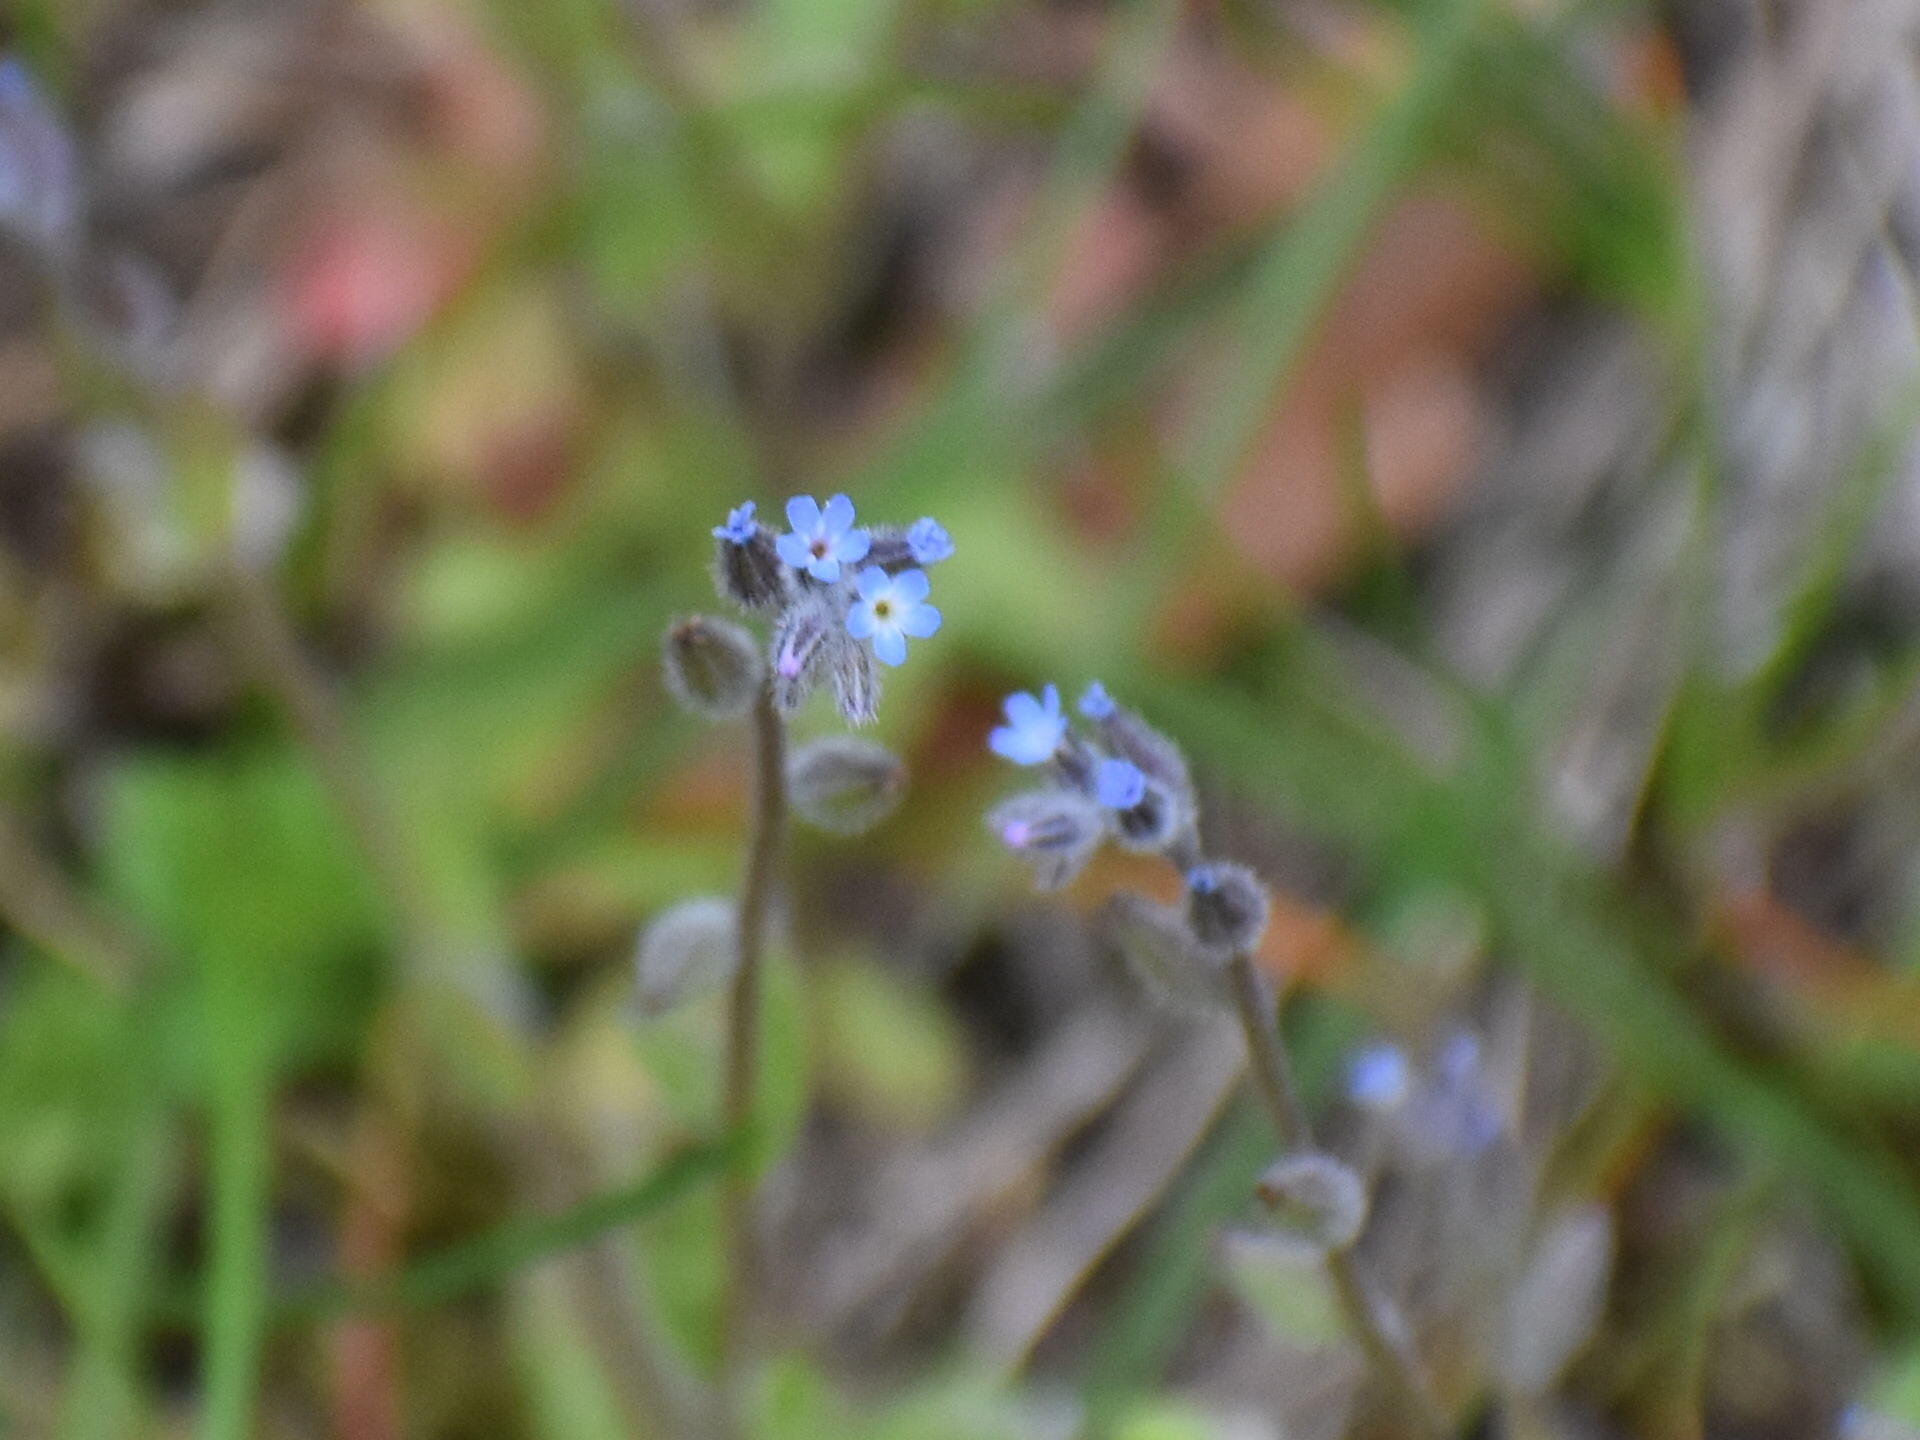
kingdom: Plantae
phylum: Tracheophyta
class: Magnoliopsida
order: Boraginales
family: Boraginaceae
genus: Myosotis
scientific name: Myosotis stricta
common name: Strict forget-me-not
